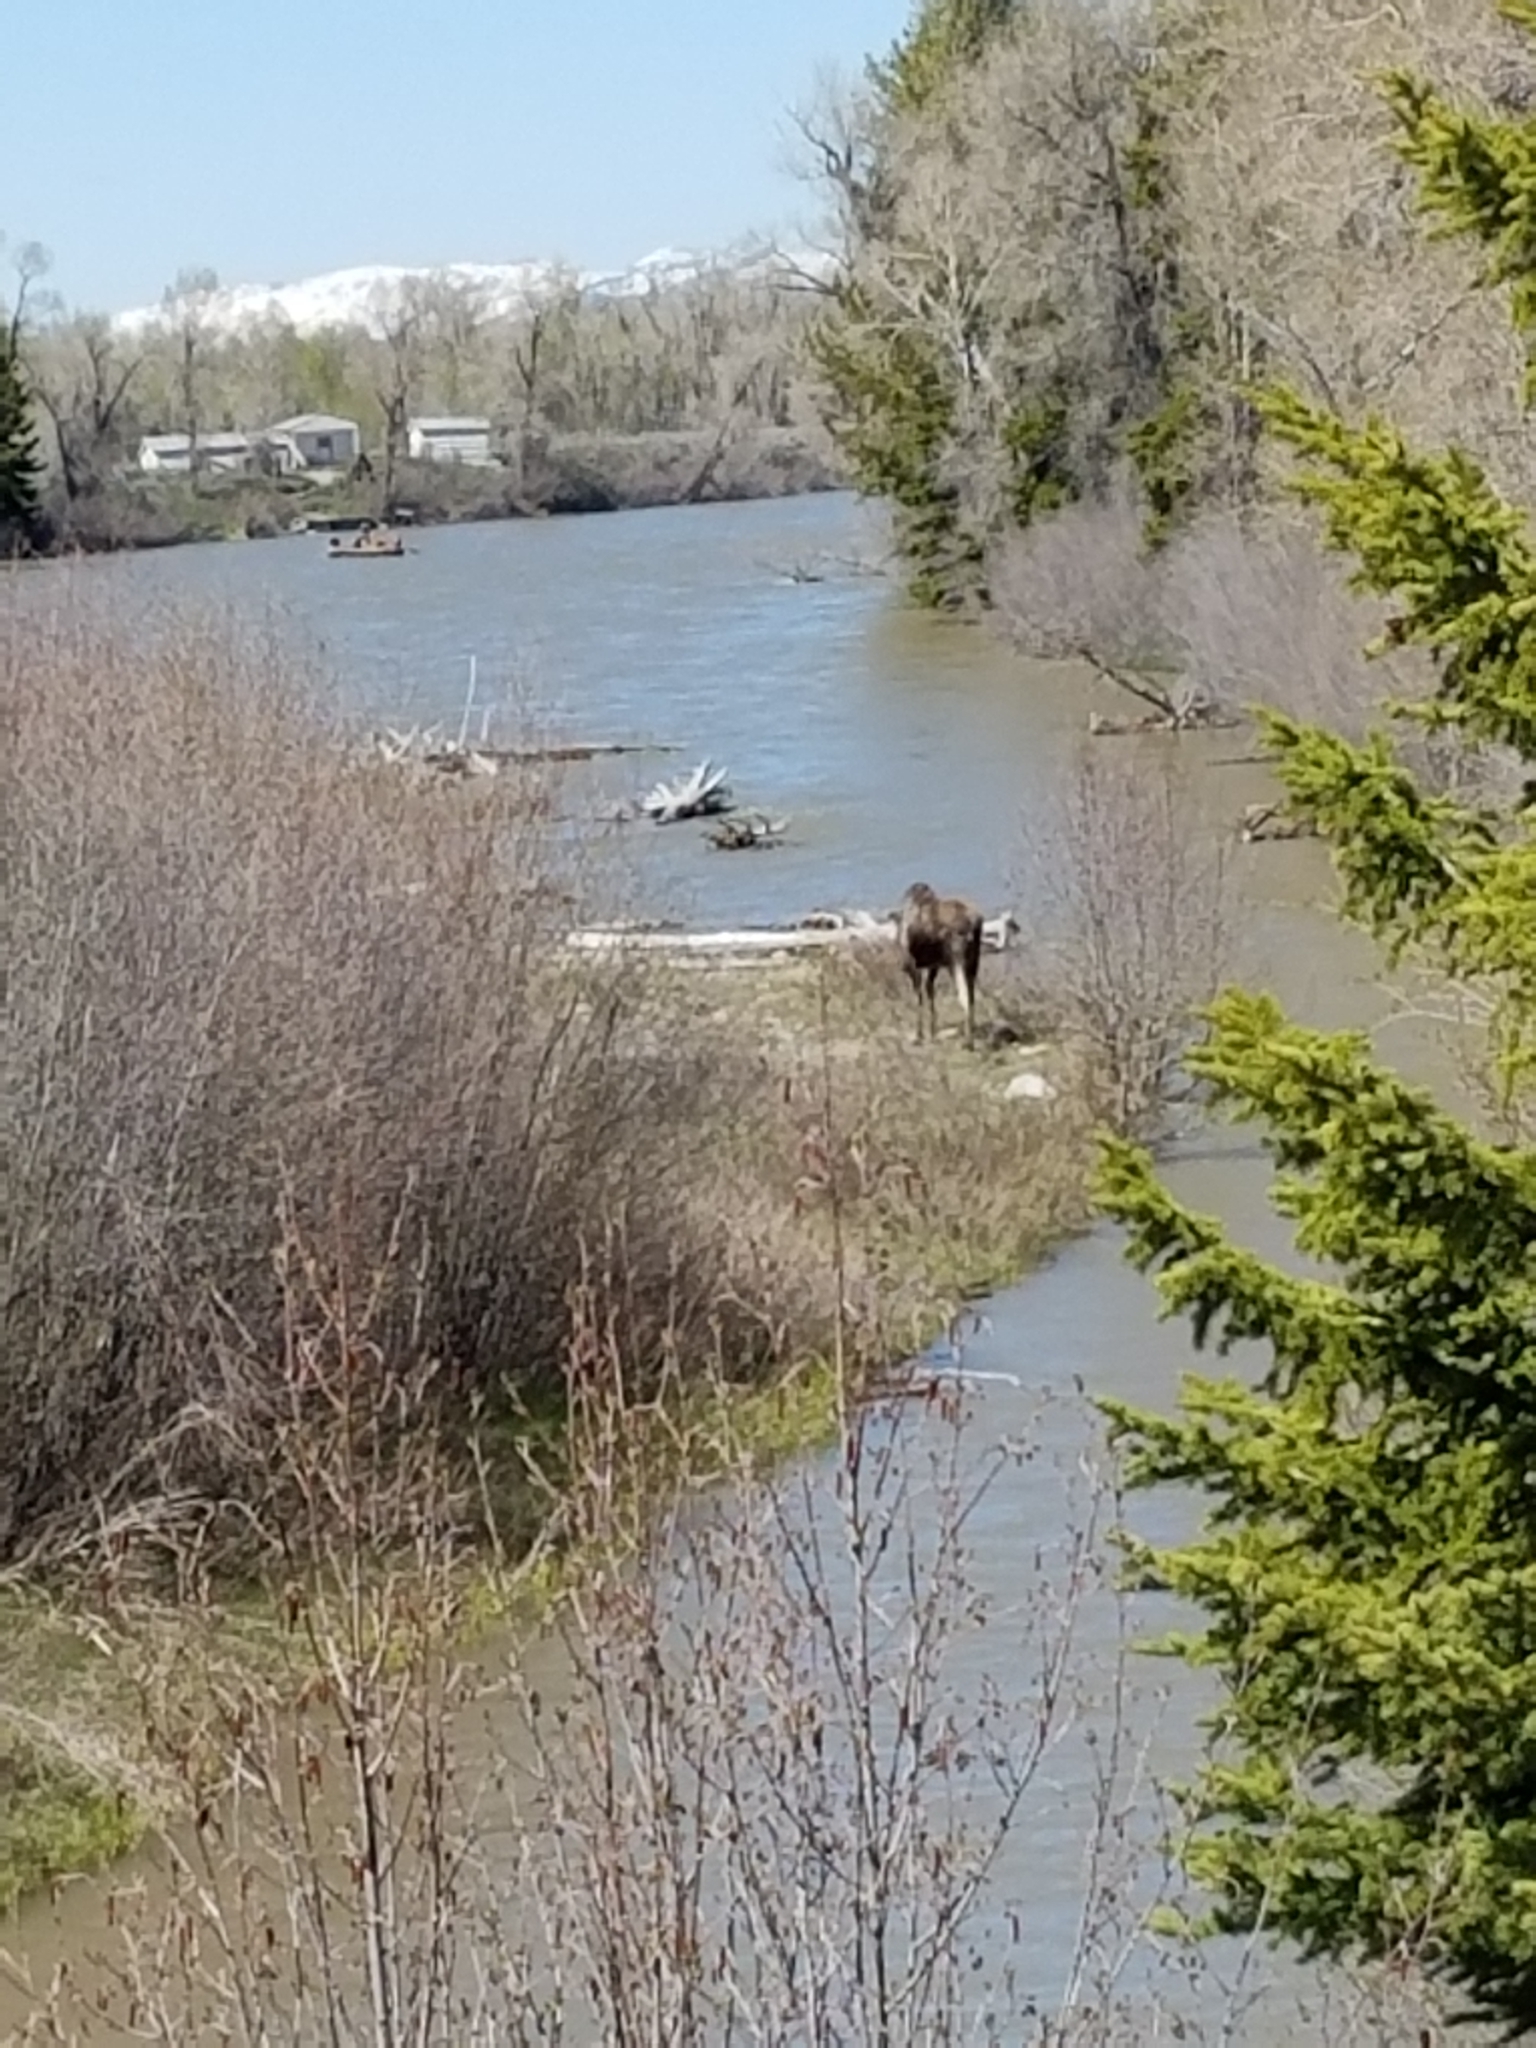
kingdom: Animalia
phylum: Chordata
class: Mammalia
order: Artiodactyla
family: Cervidae
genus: Alces
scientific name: Alces alces
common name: Moose
